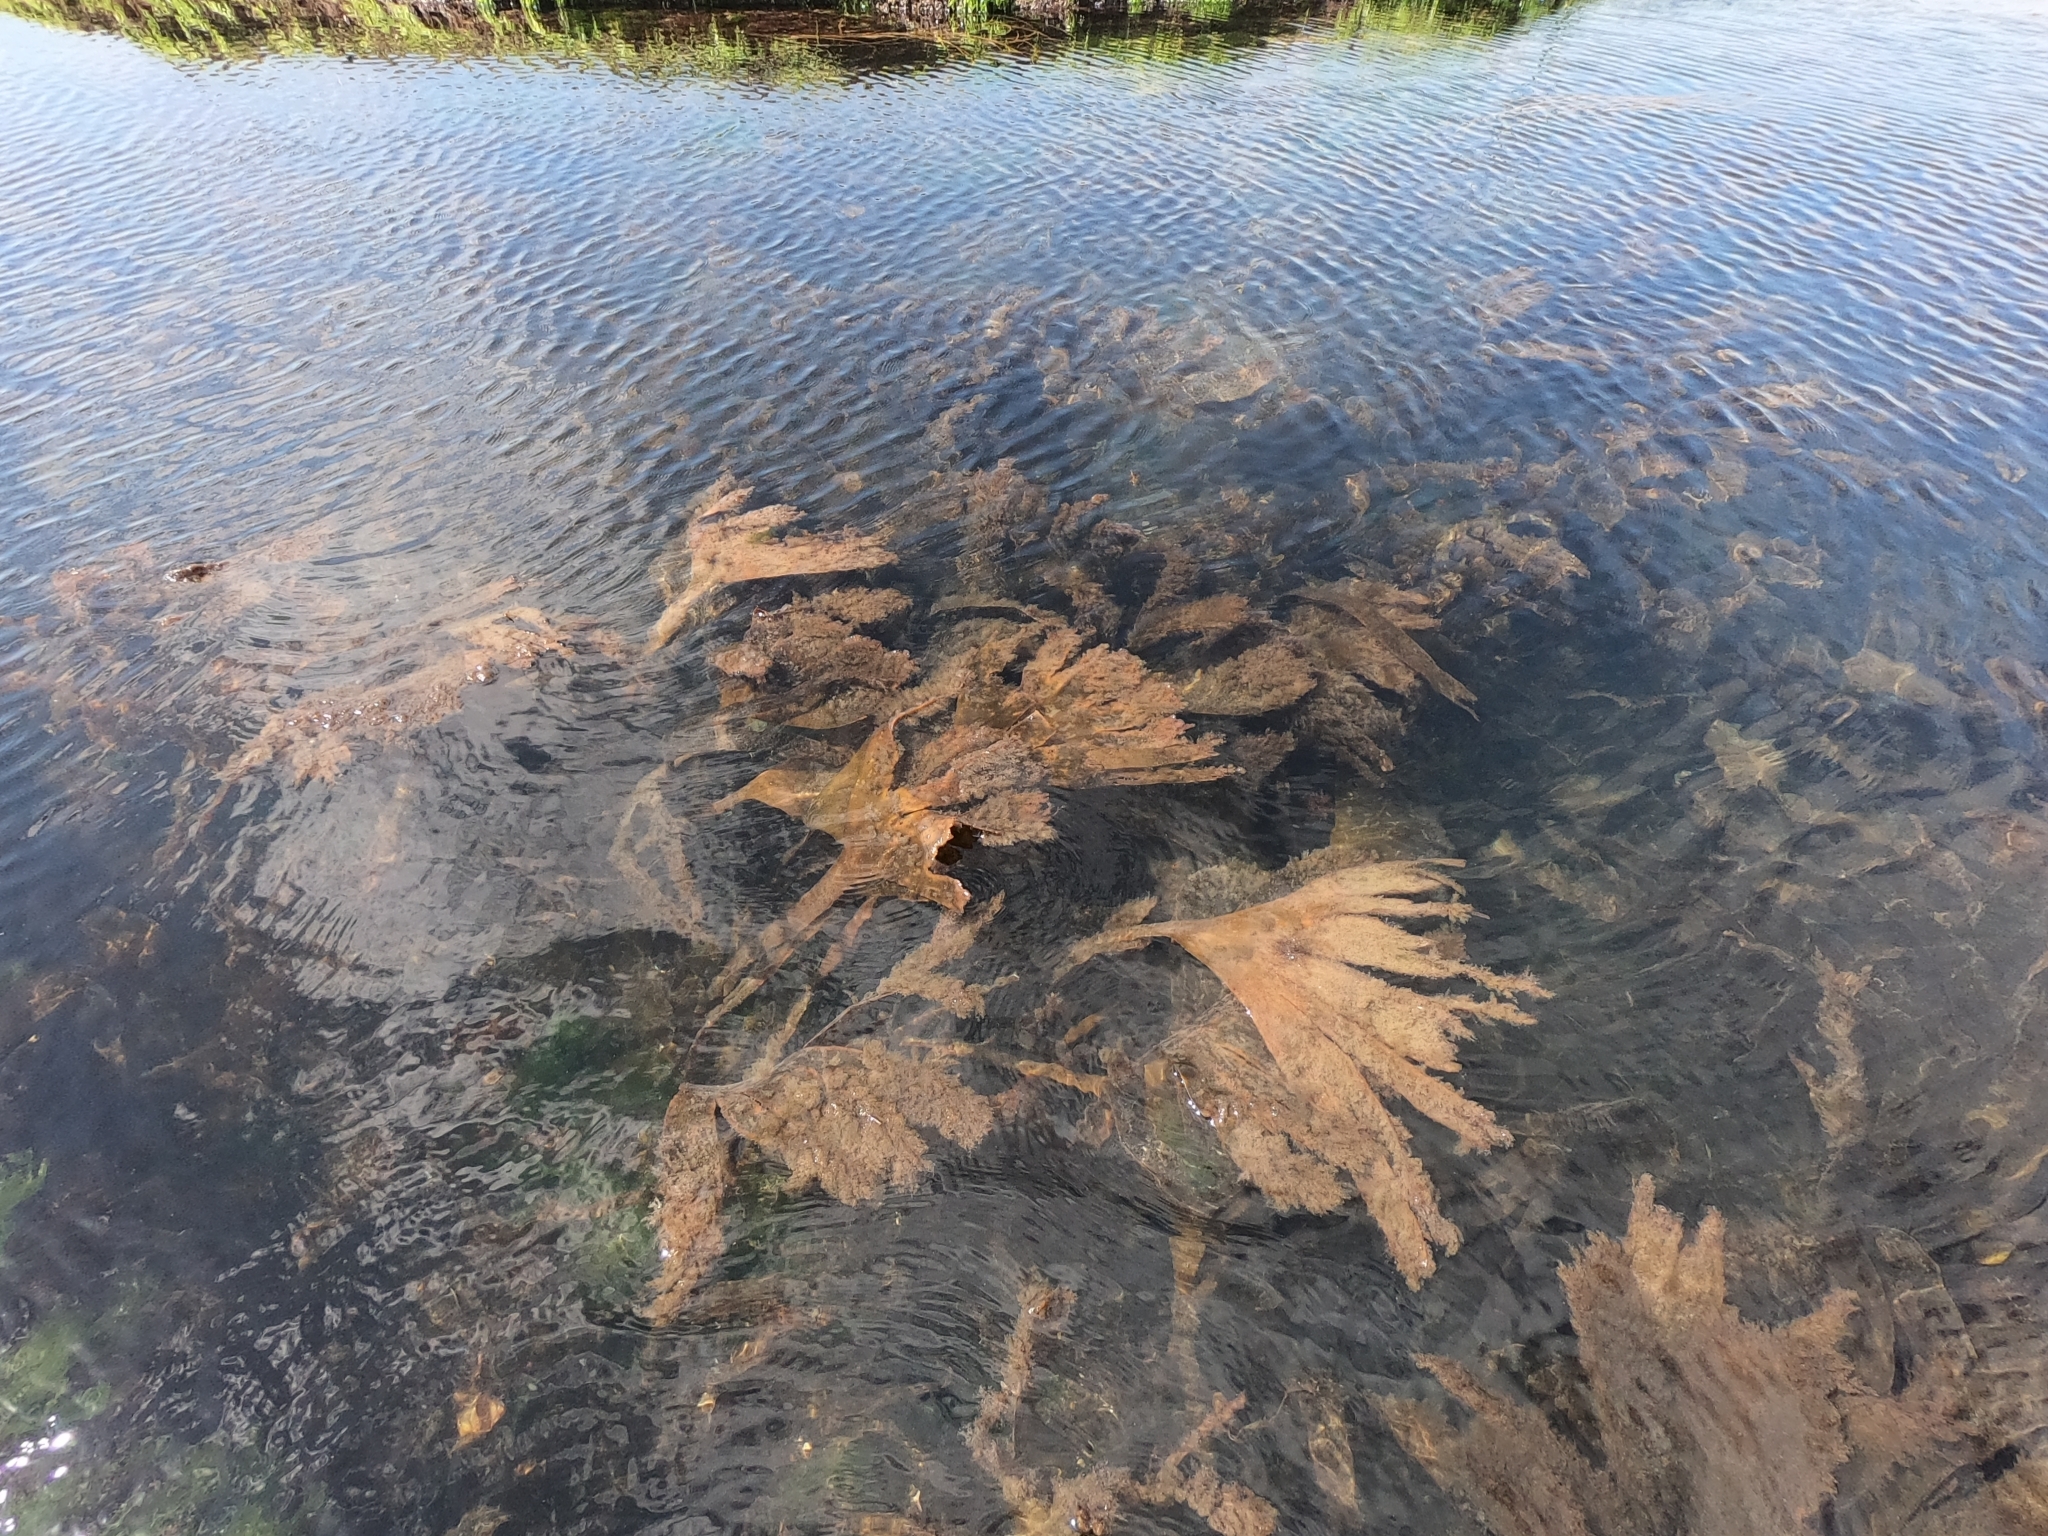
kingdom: Chromista
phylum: Ochrophyta
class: Phaeophyceae
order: Tilopteridales
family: Phyllariaceae
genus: Saccorhiza
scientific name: Saccorhiza polyschides
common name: Furbelows
